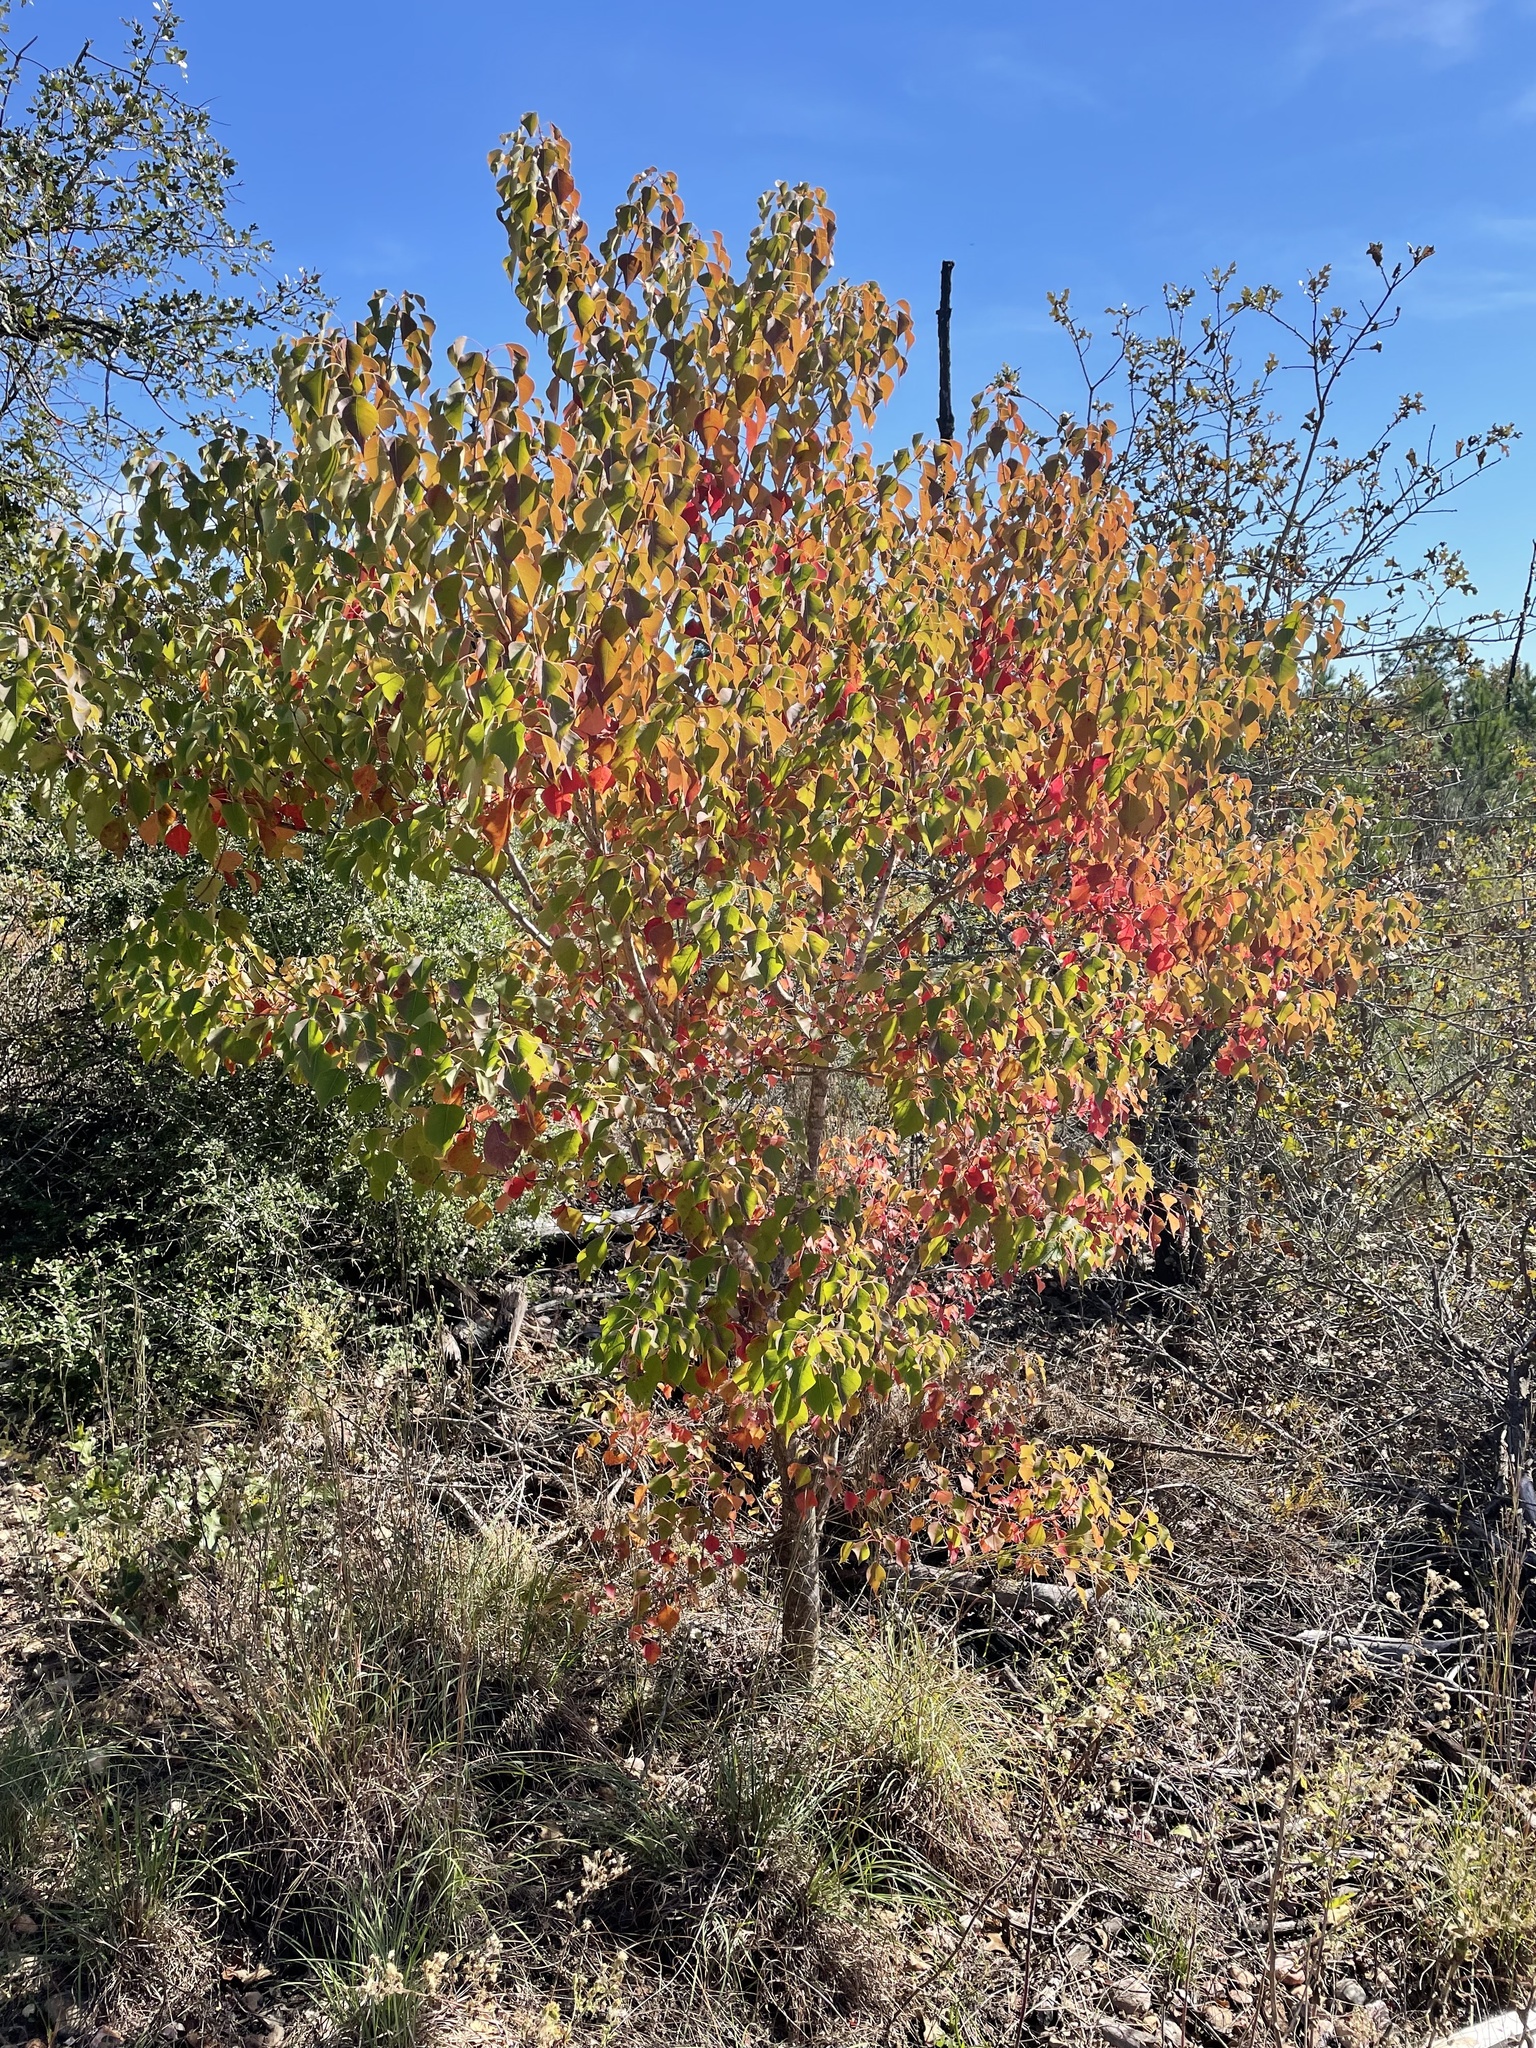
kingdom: Plantae
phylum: Tracheophyta
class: Magnoliopsida
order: Malpighiales
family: Euphorbiaceae
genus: Triadica
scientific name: Triadica sebifera
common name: Chinese tallow
